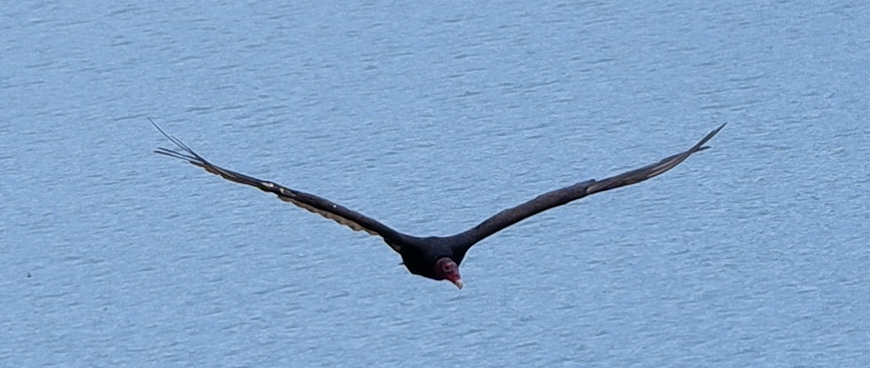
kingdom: Animalia
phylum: Chordata
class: Aves
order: Accipitriformes
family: Cathartidae
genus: Cathartes
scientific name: Cathartes aura
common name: Turkey vulture
